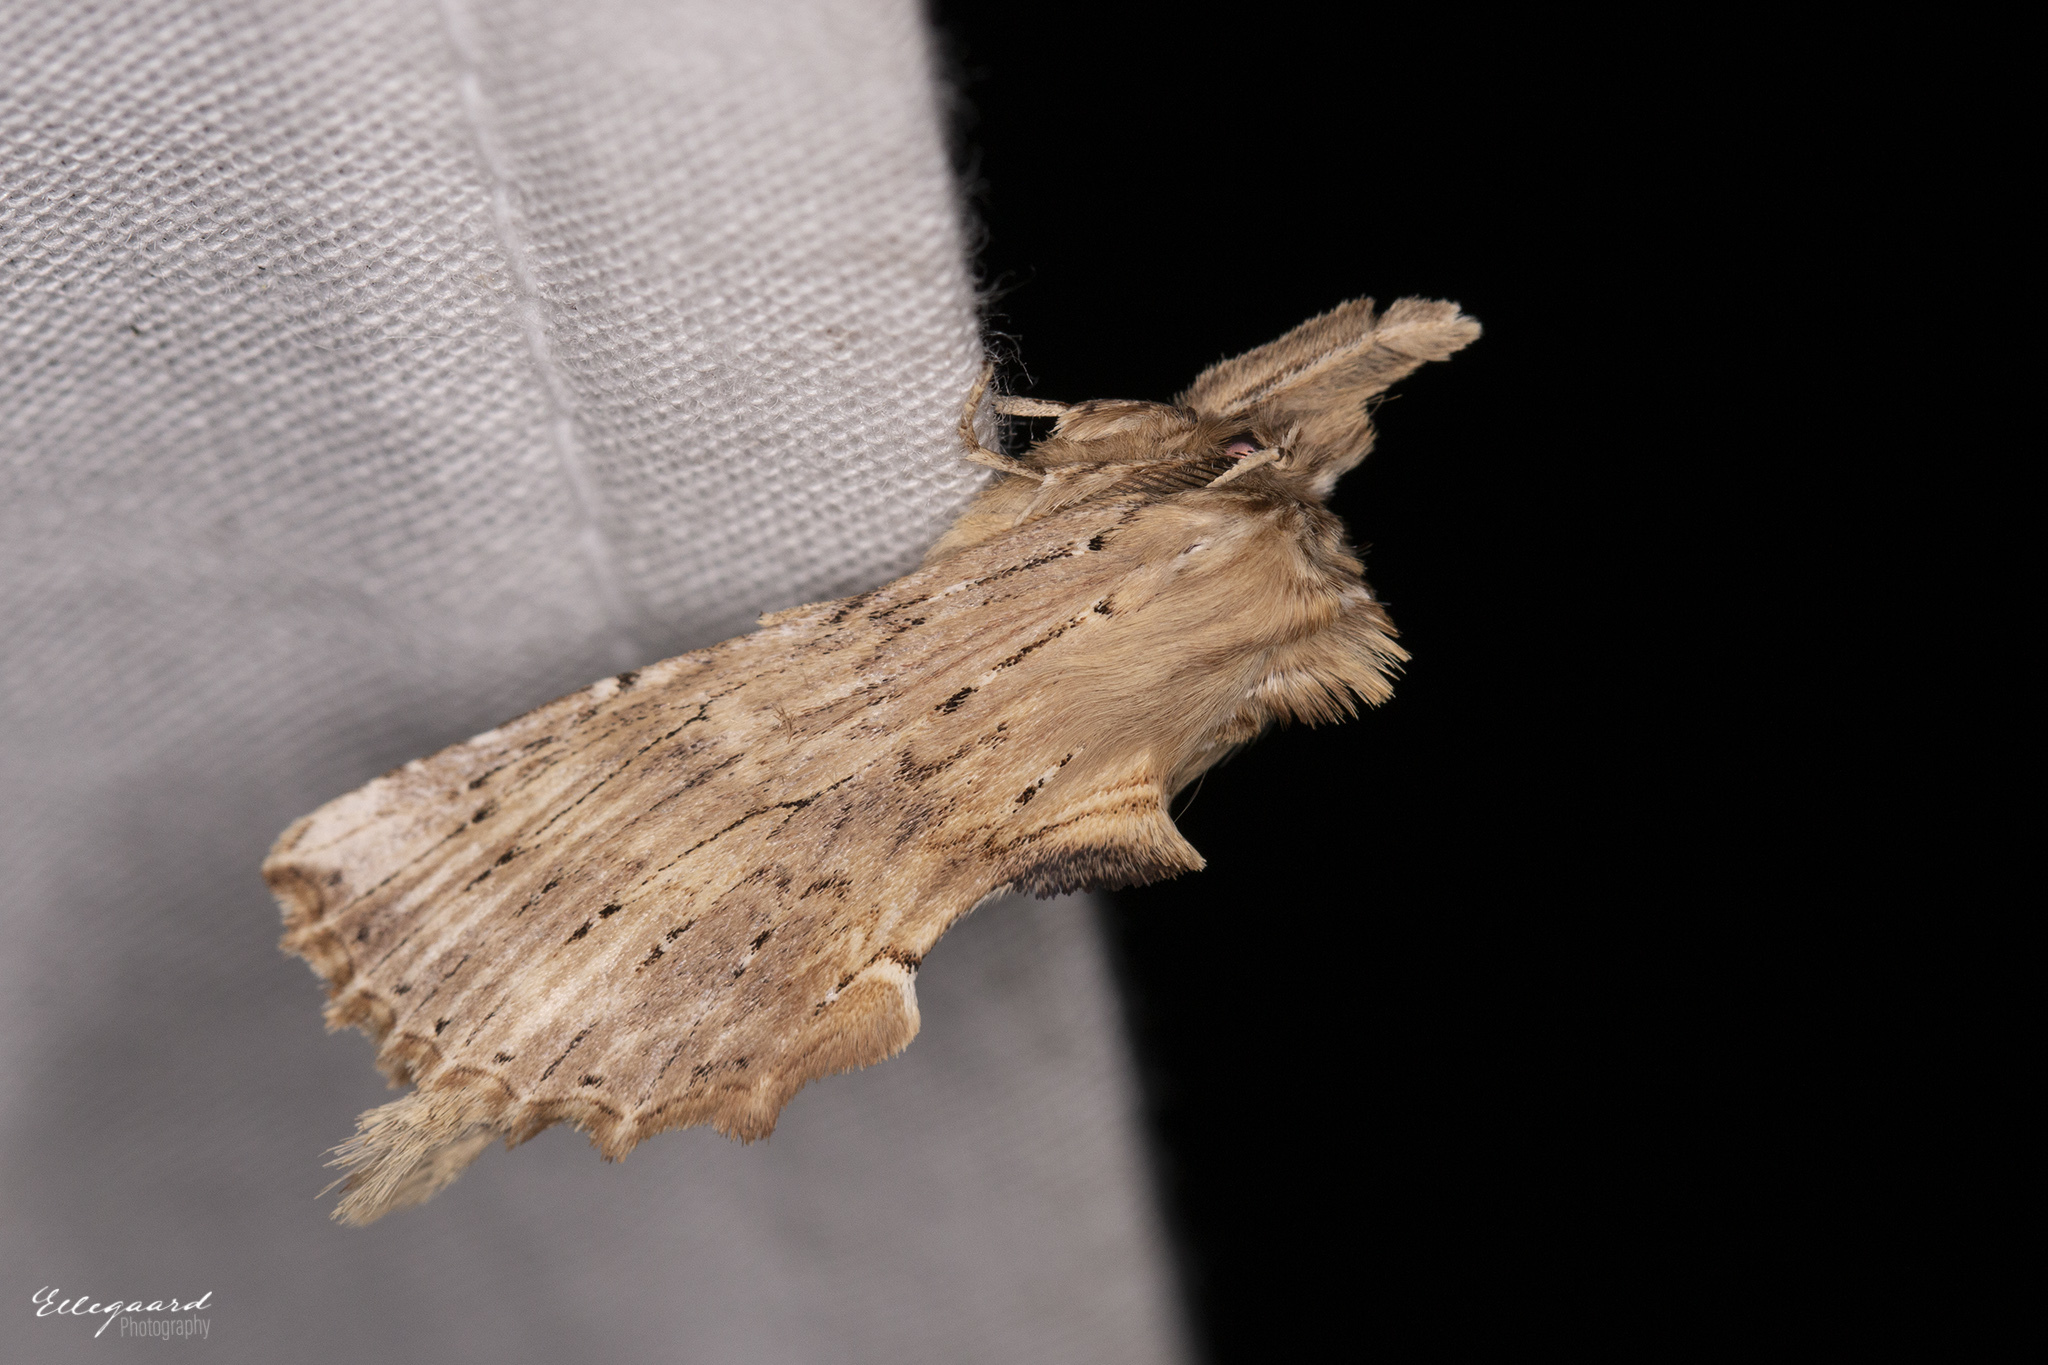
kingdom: Animalia
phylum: Arthropoda
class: Insecta
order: Lepidoptera
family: Notodontidae
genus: Pterostoma
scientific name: Pterostoma palpina
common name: Pale prominent
